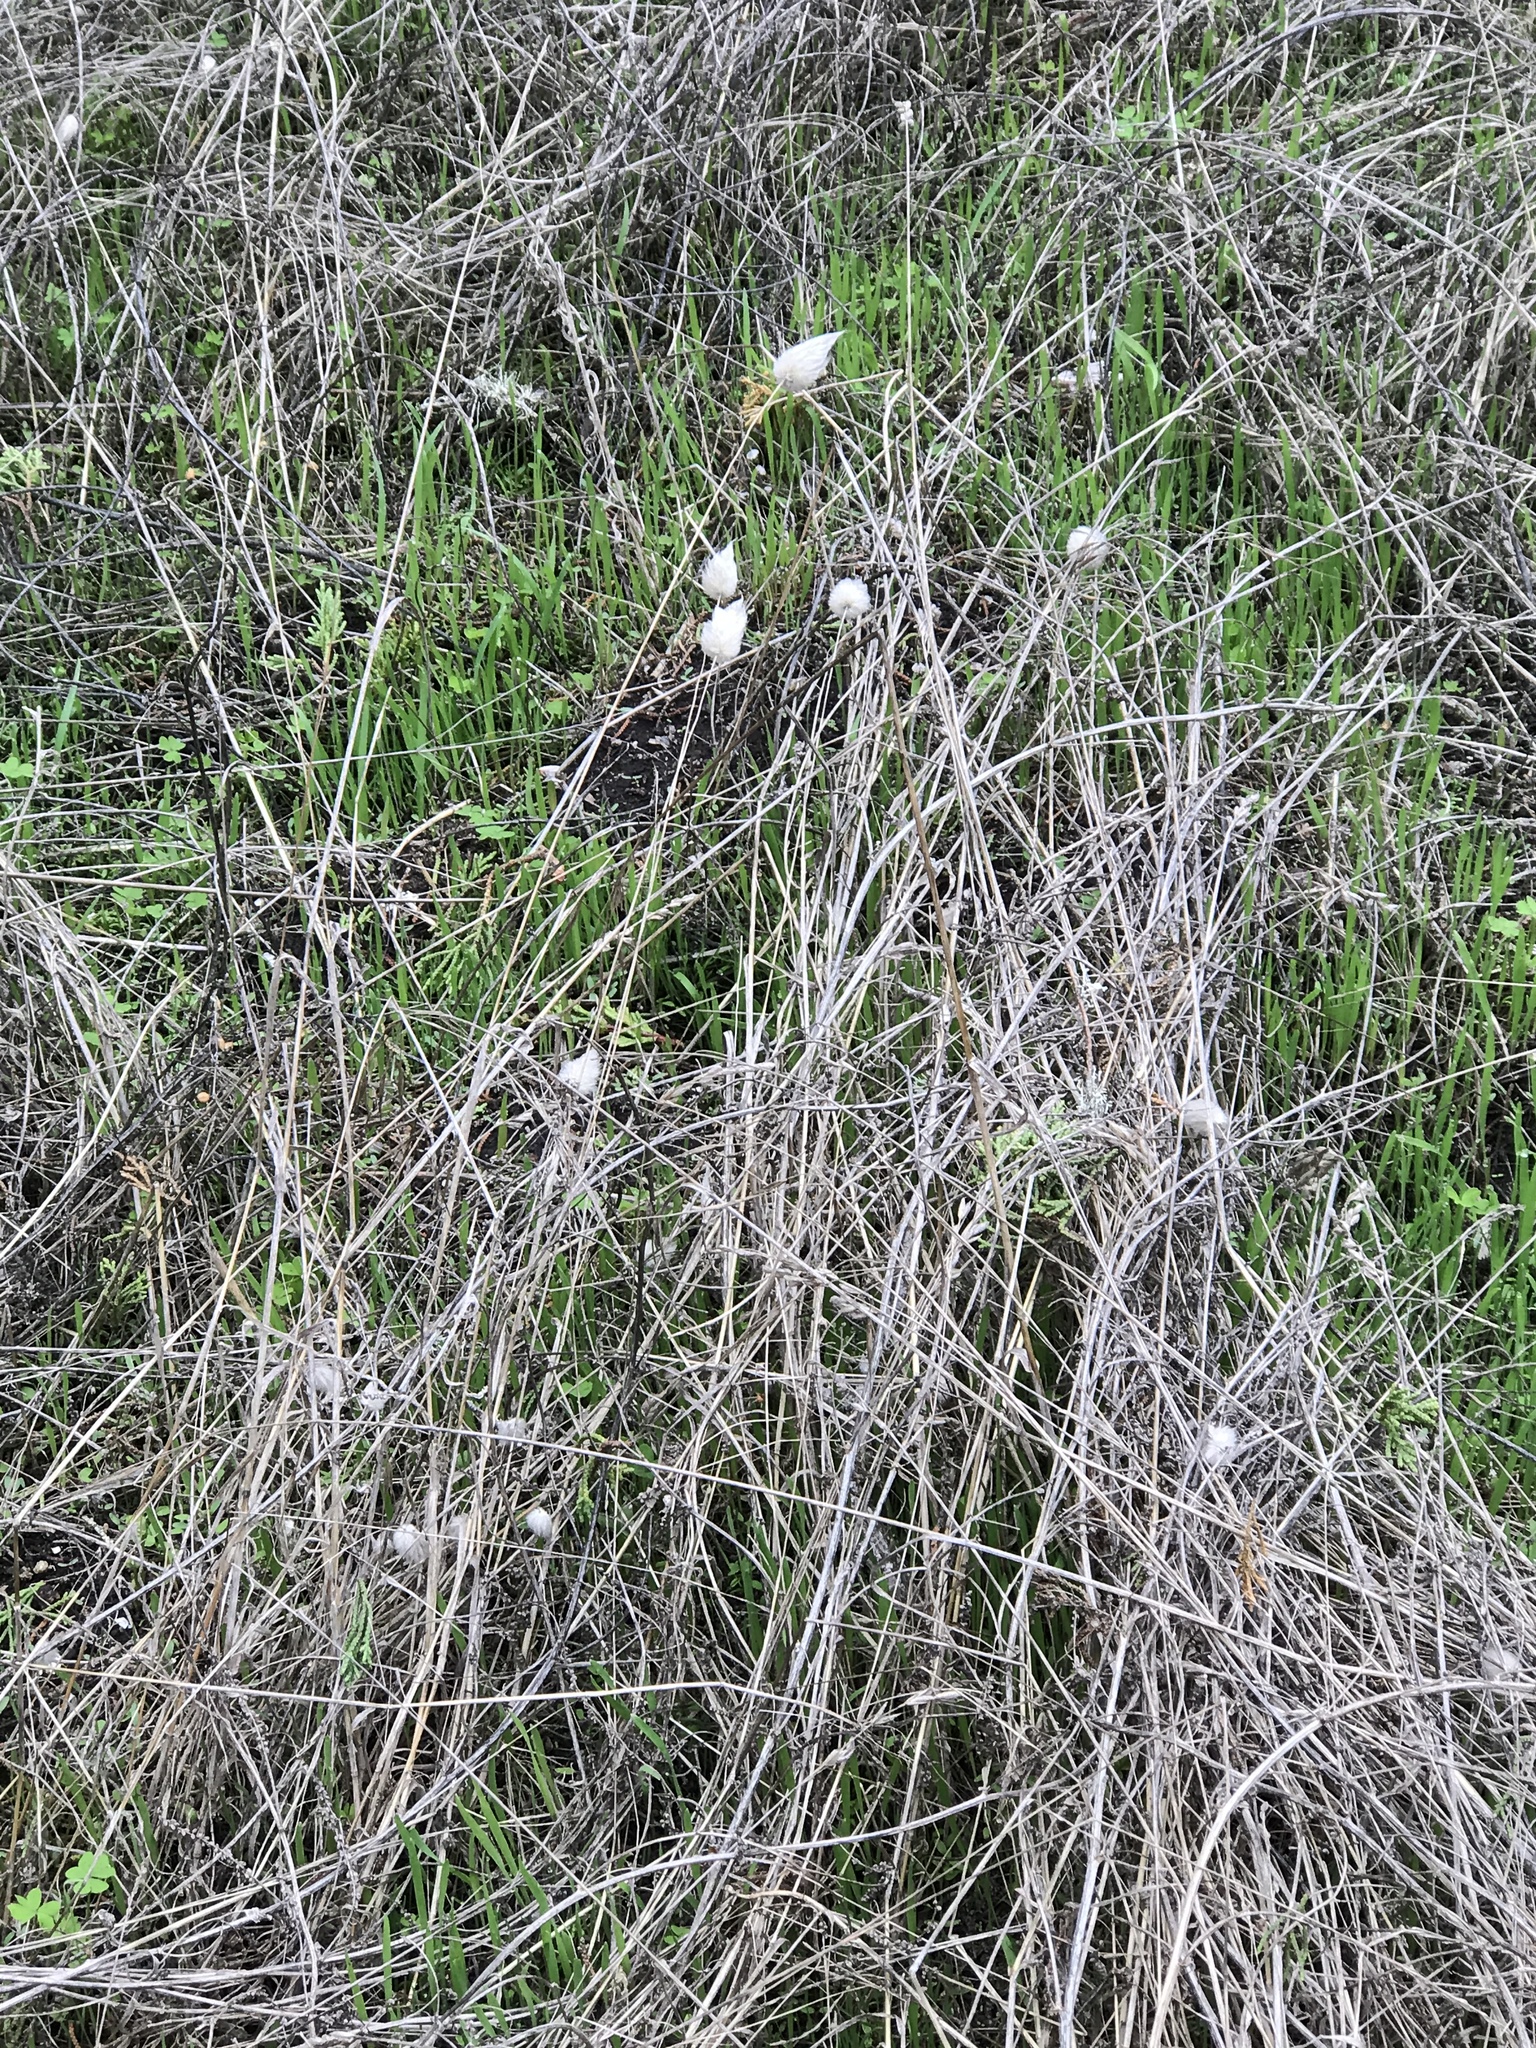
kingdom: Plantae
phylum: Tracheophyta
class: Liliopsida
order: Poales
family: Poaceae
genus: Lagurus
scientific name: Lagurus ovatus
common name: Hare's-tail
